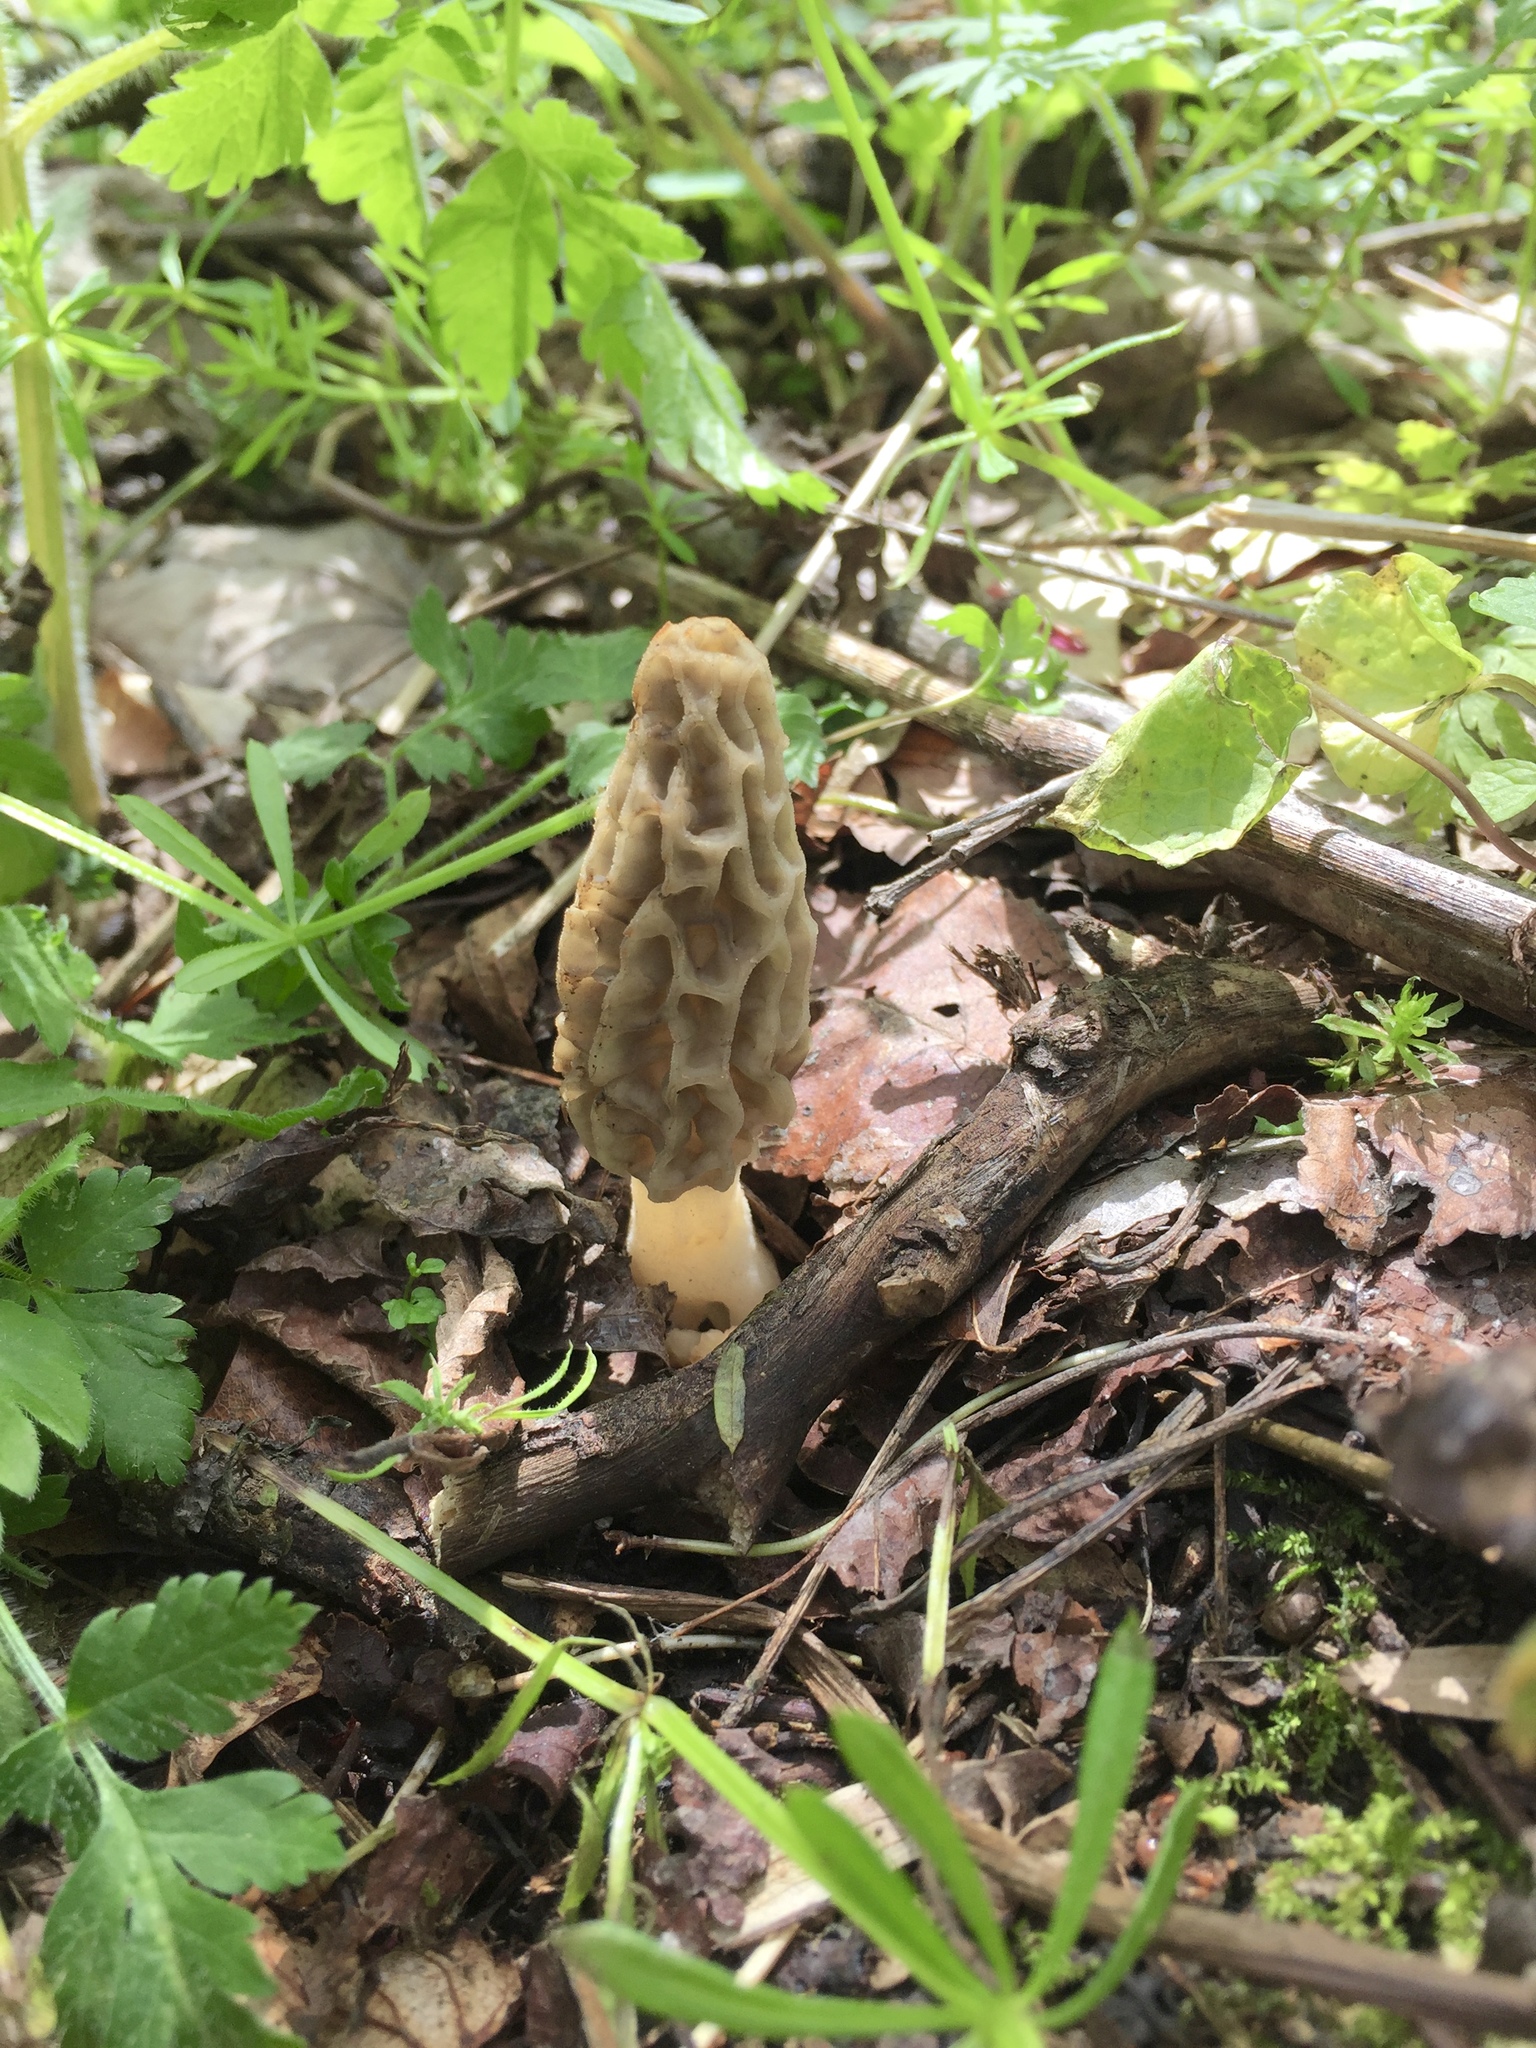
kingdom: Fungi
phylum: Ascomycota
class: Pezizomycetes
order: Pezizales
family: Morchellaceae
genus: Morchella
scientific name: Morchella diminutiva
